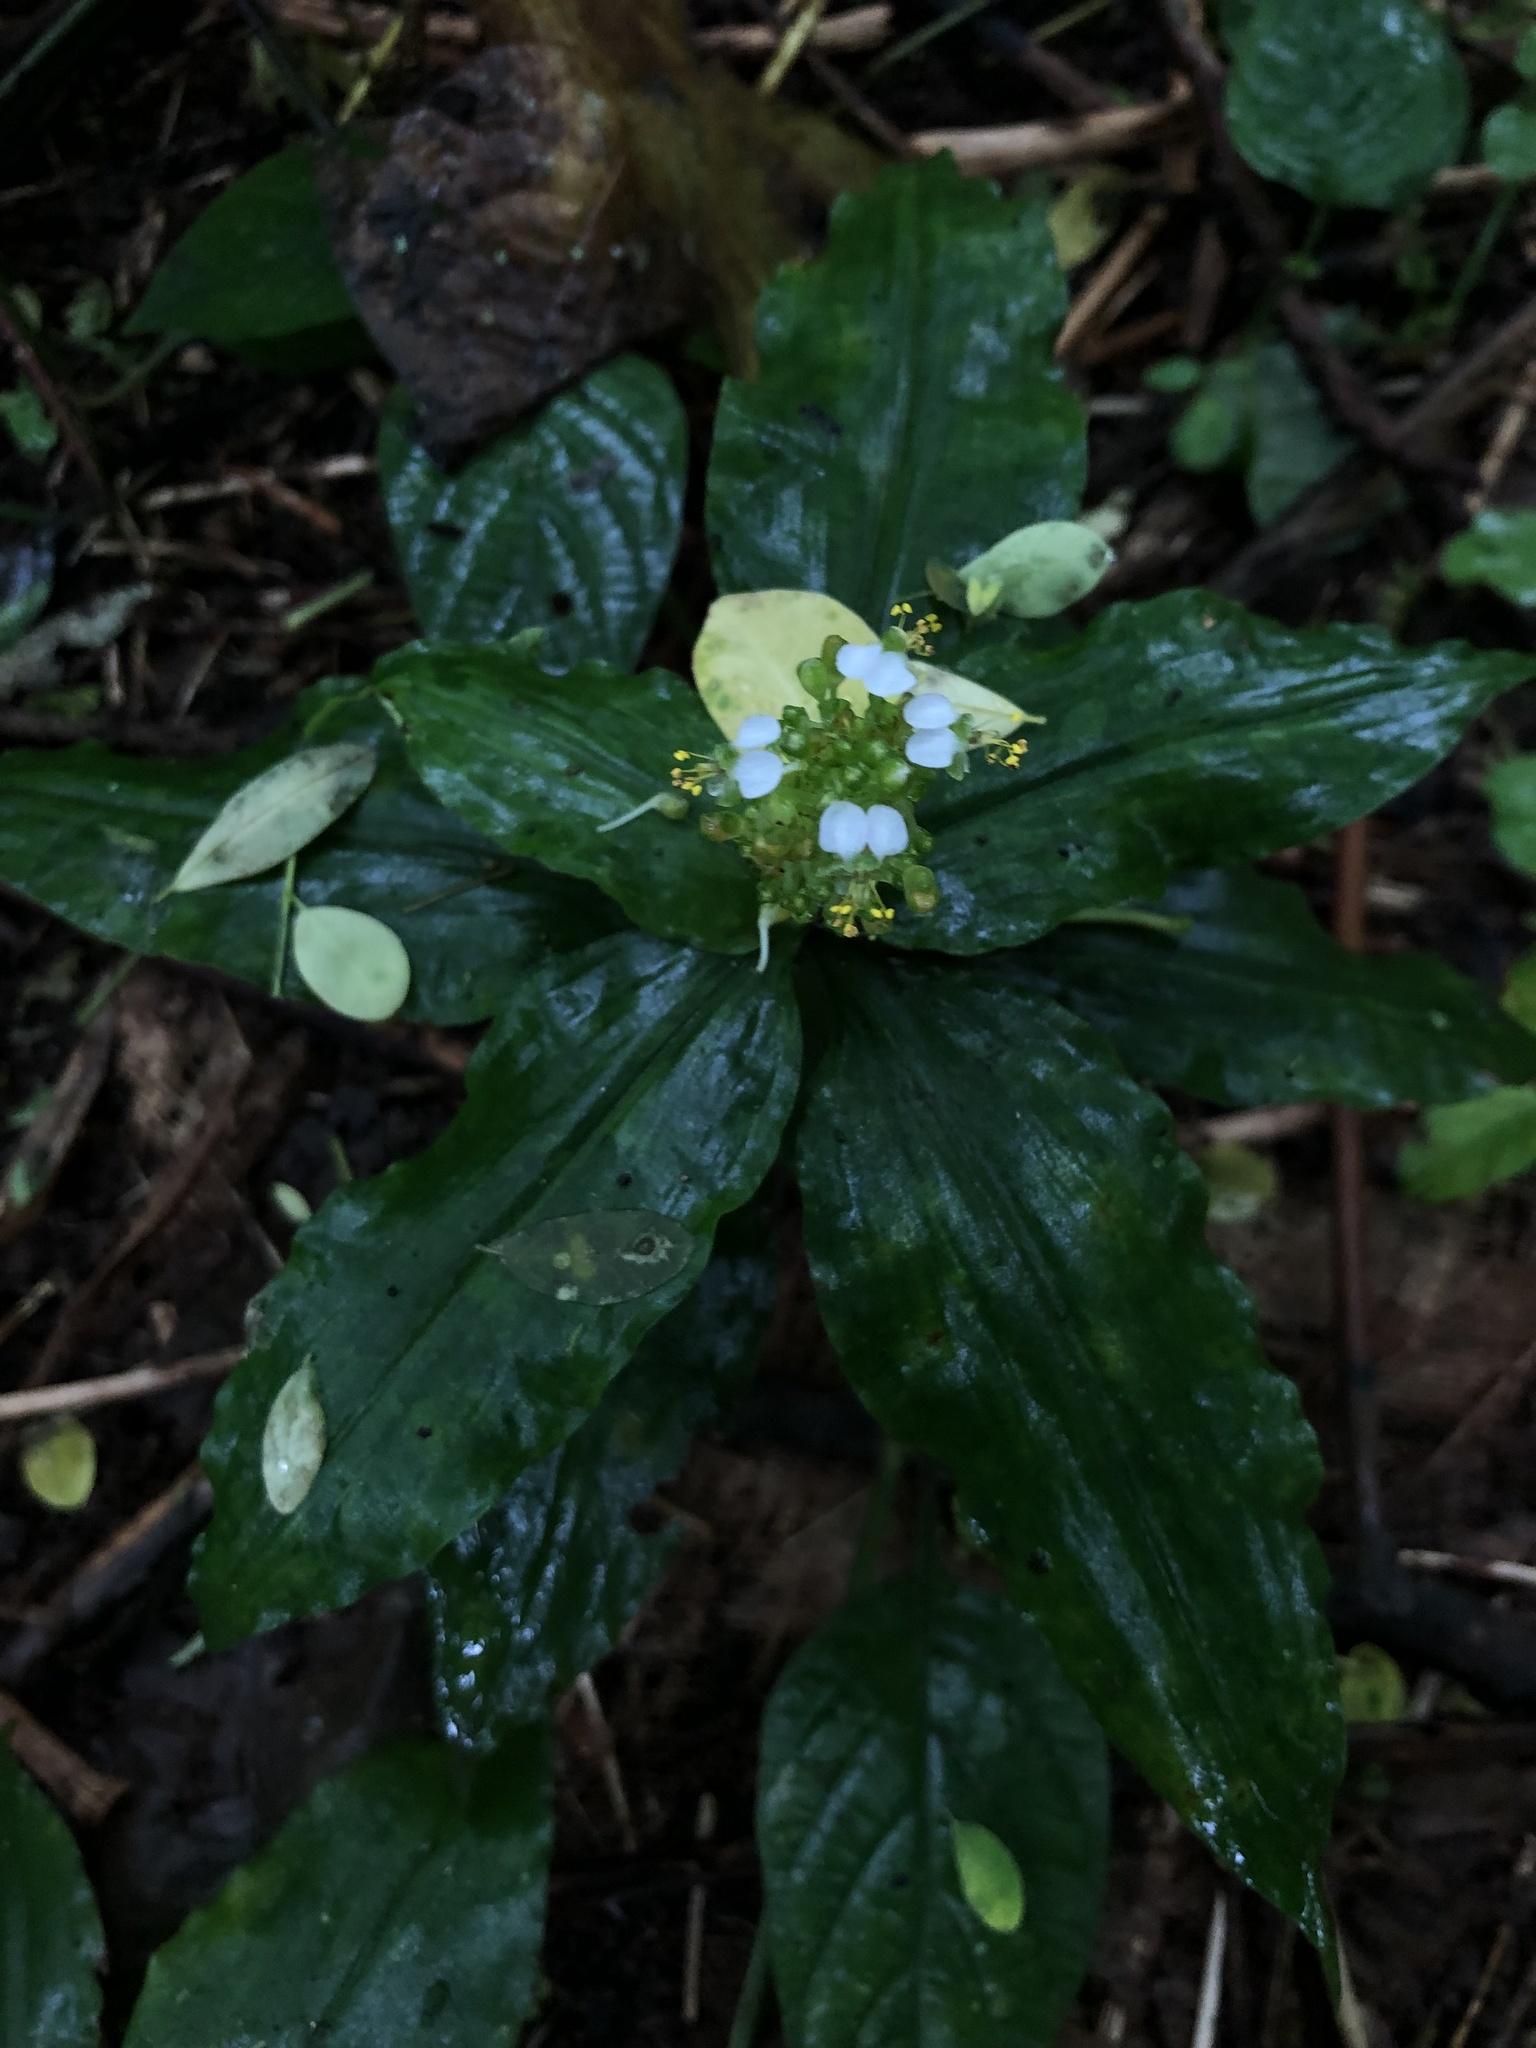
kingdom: Plantae
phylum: Tracheophyta
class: Liliopsida
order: Commelinales
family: Commelinaceae
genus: Aneilema
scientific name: Aneilema umbrosum
